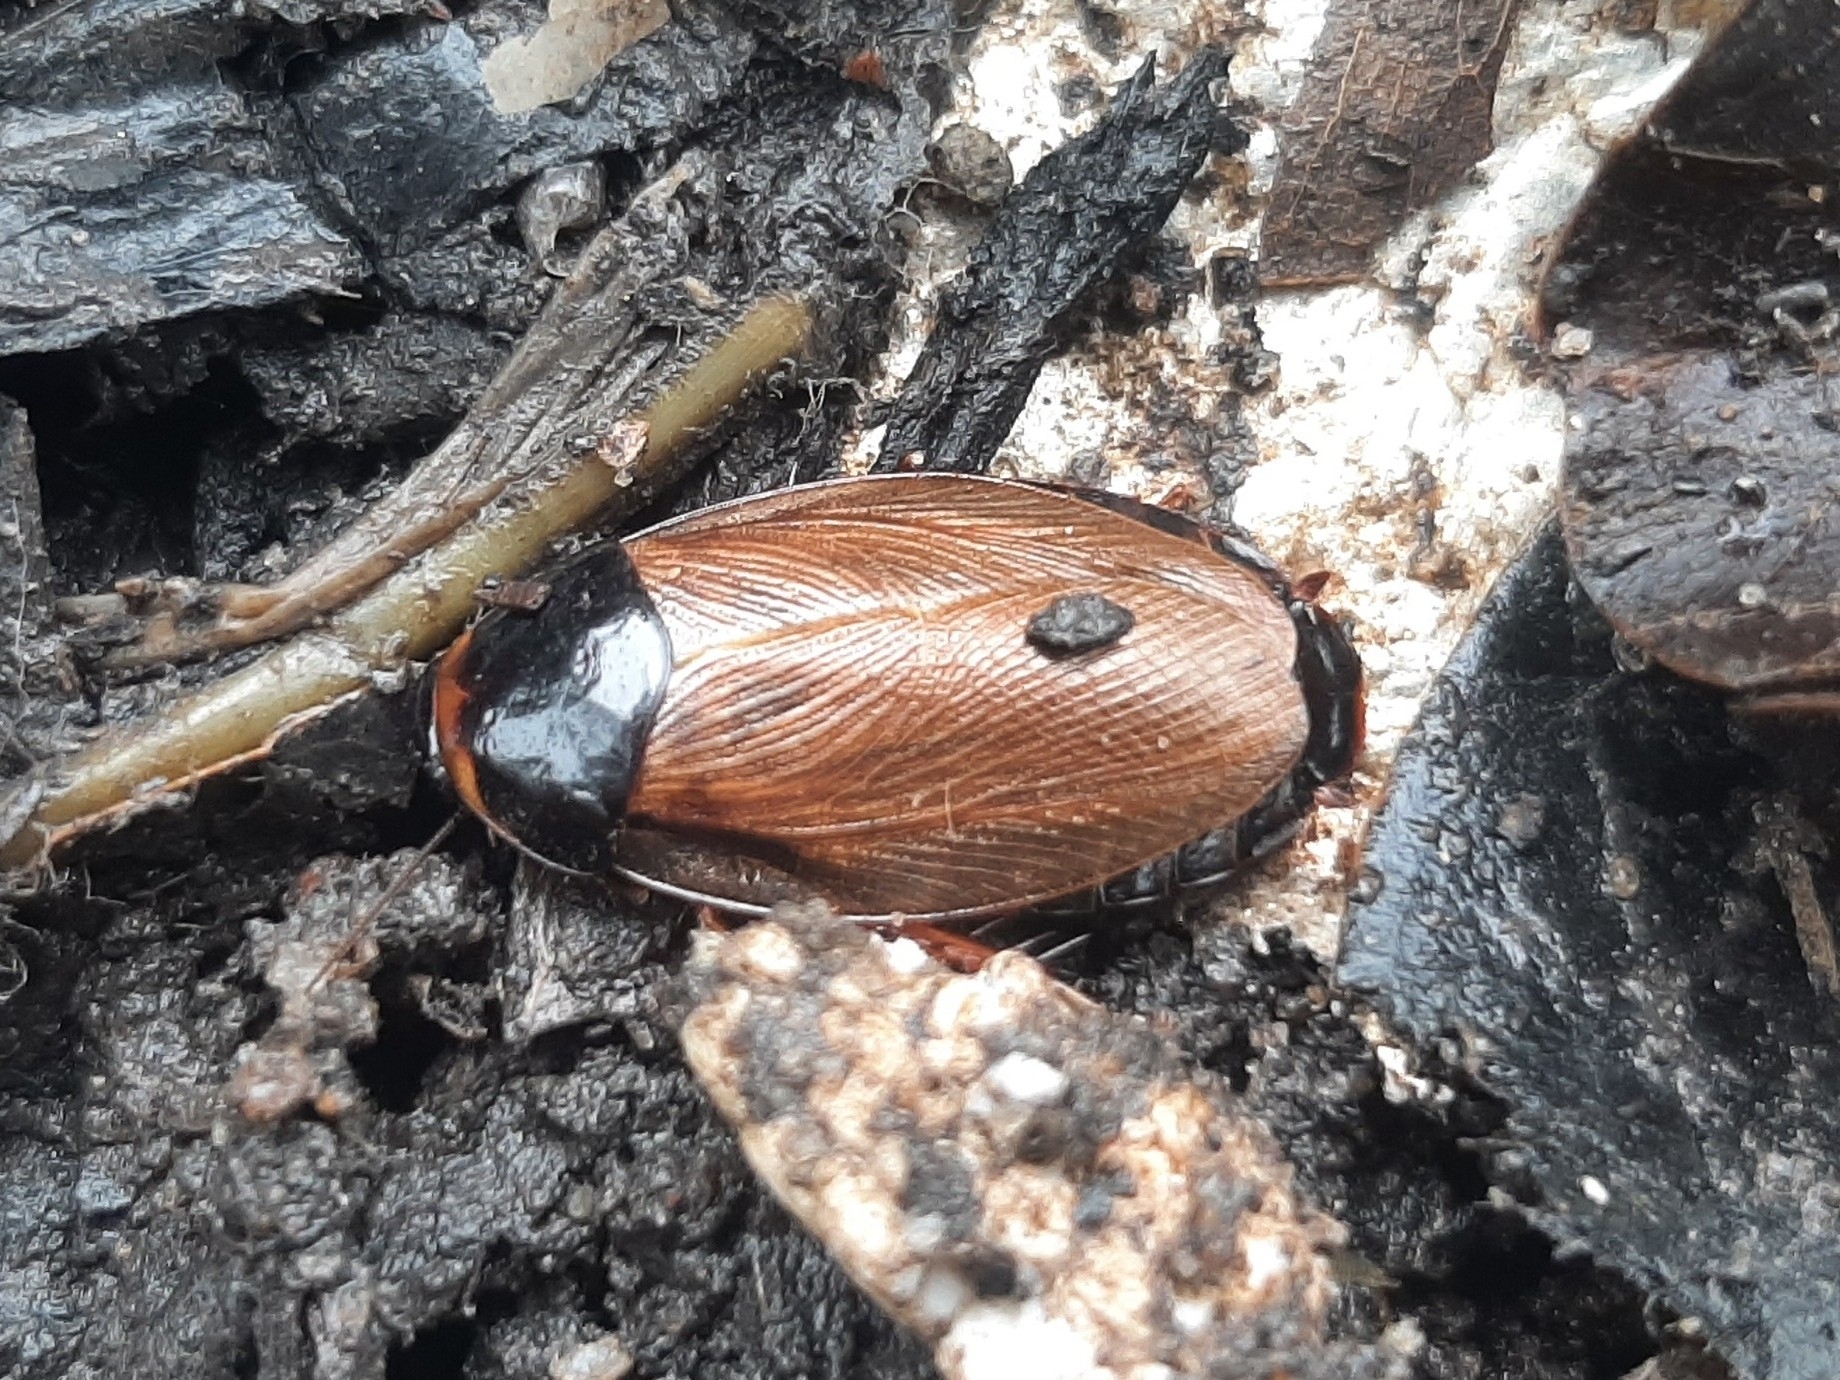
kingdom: Animalia
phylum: Arthropoda
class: Insecta
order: Blattodea
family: Blaberidae
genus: Pycnoscelus
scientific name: Pycnoscelus surinamensis
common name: Surinam cockroach
